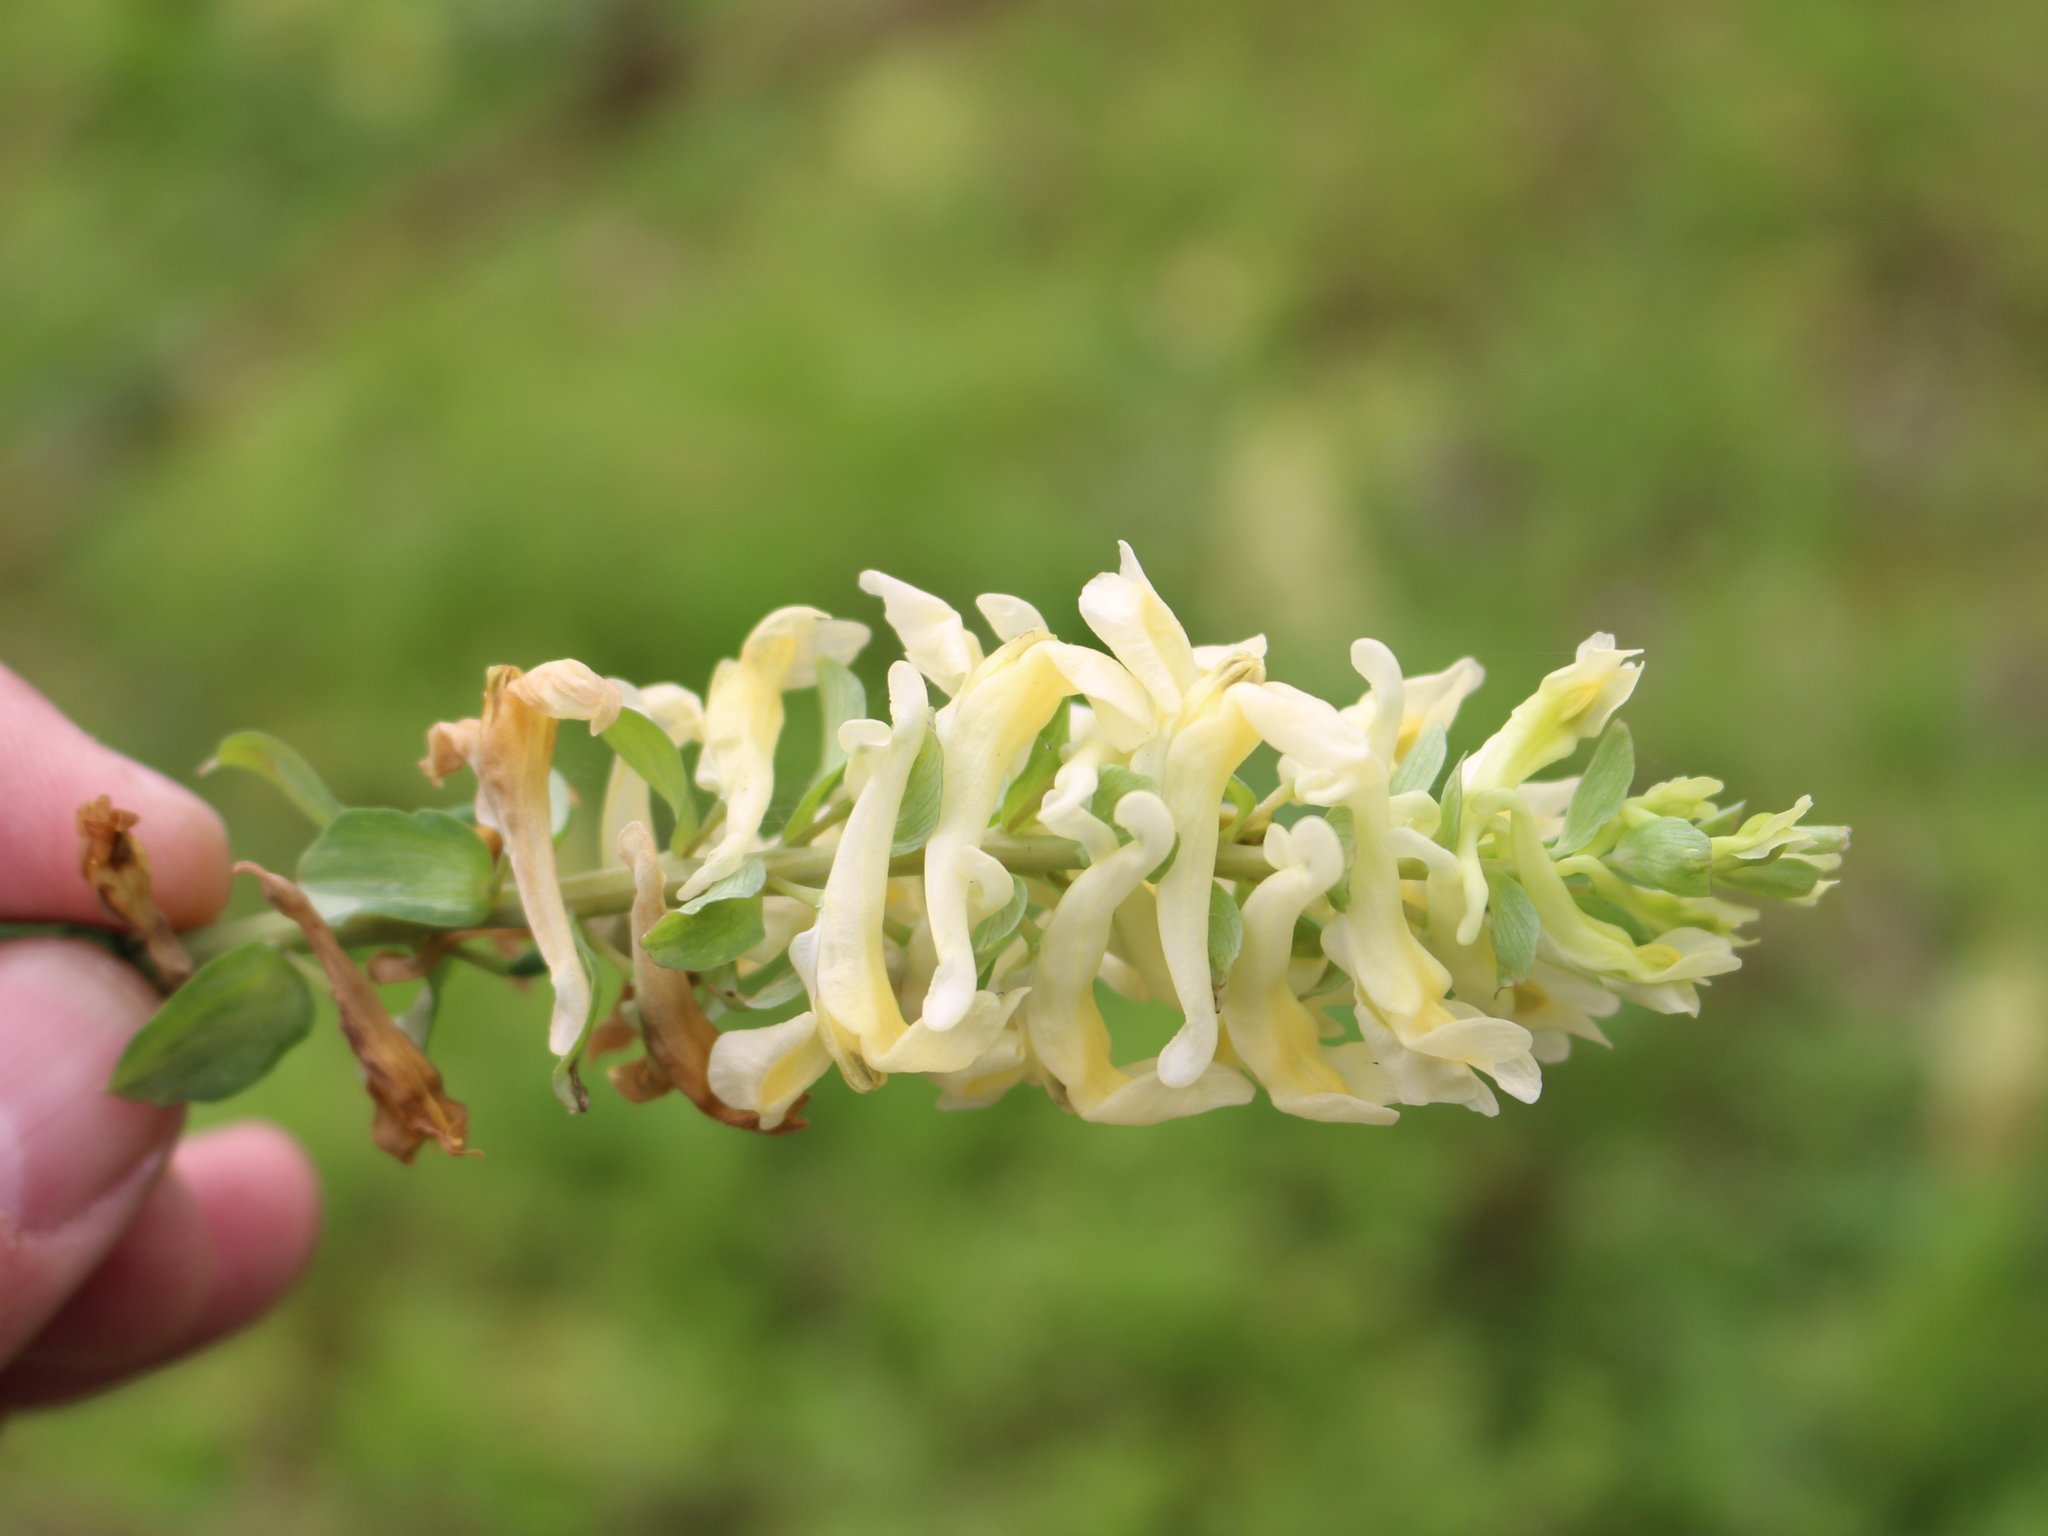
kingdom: Plantae
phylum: Tracheophyta
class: Magnoliopsida
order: Ranunculales
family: Papaveraceae
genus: Corydalis
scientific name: Corydalis cava
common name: Hollowroot
